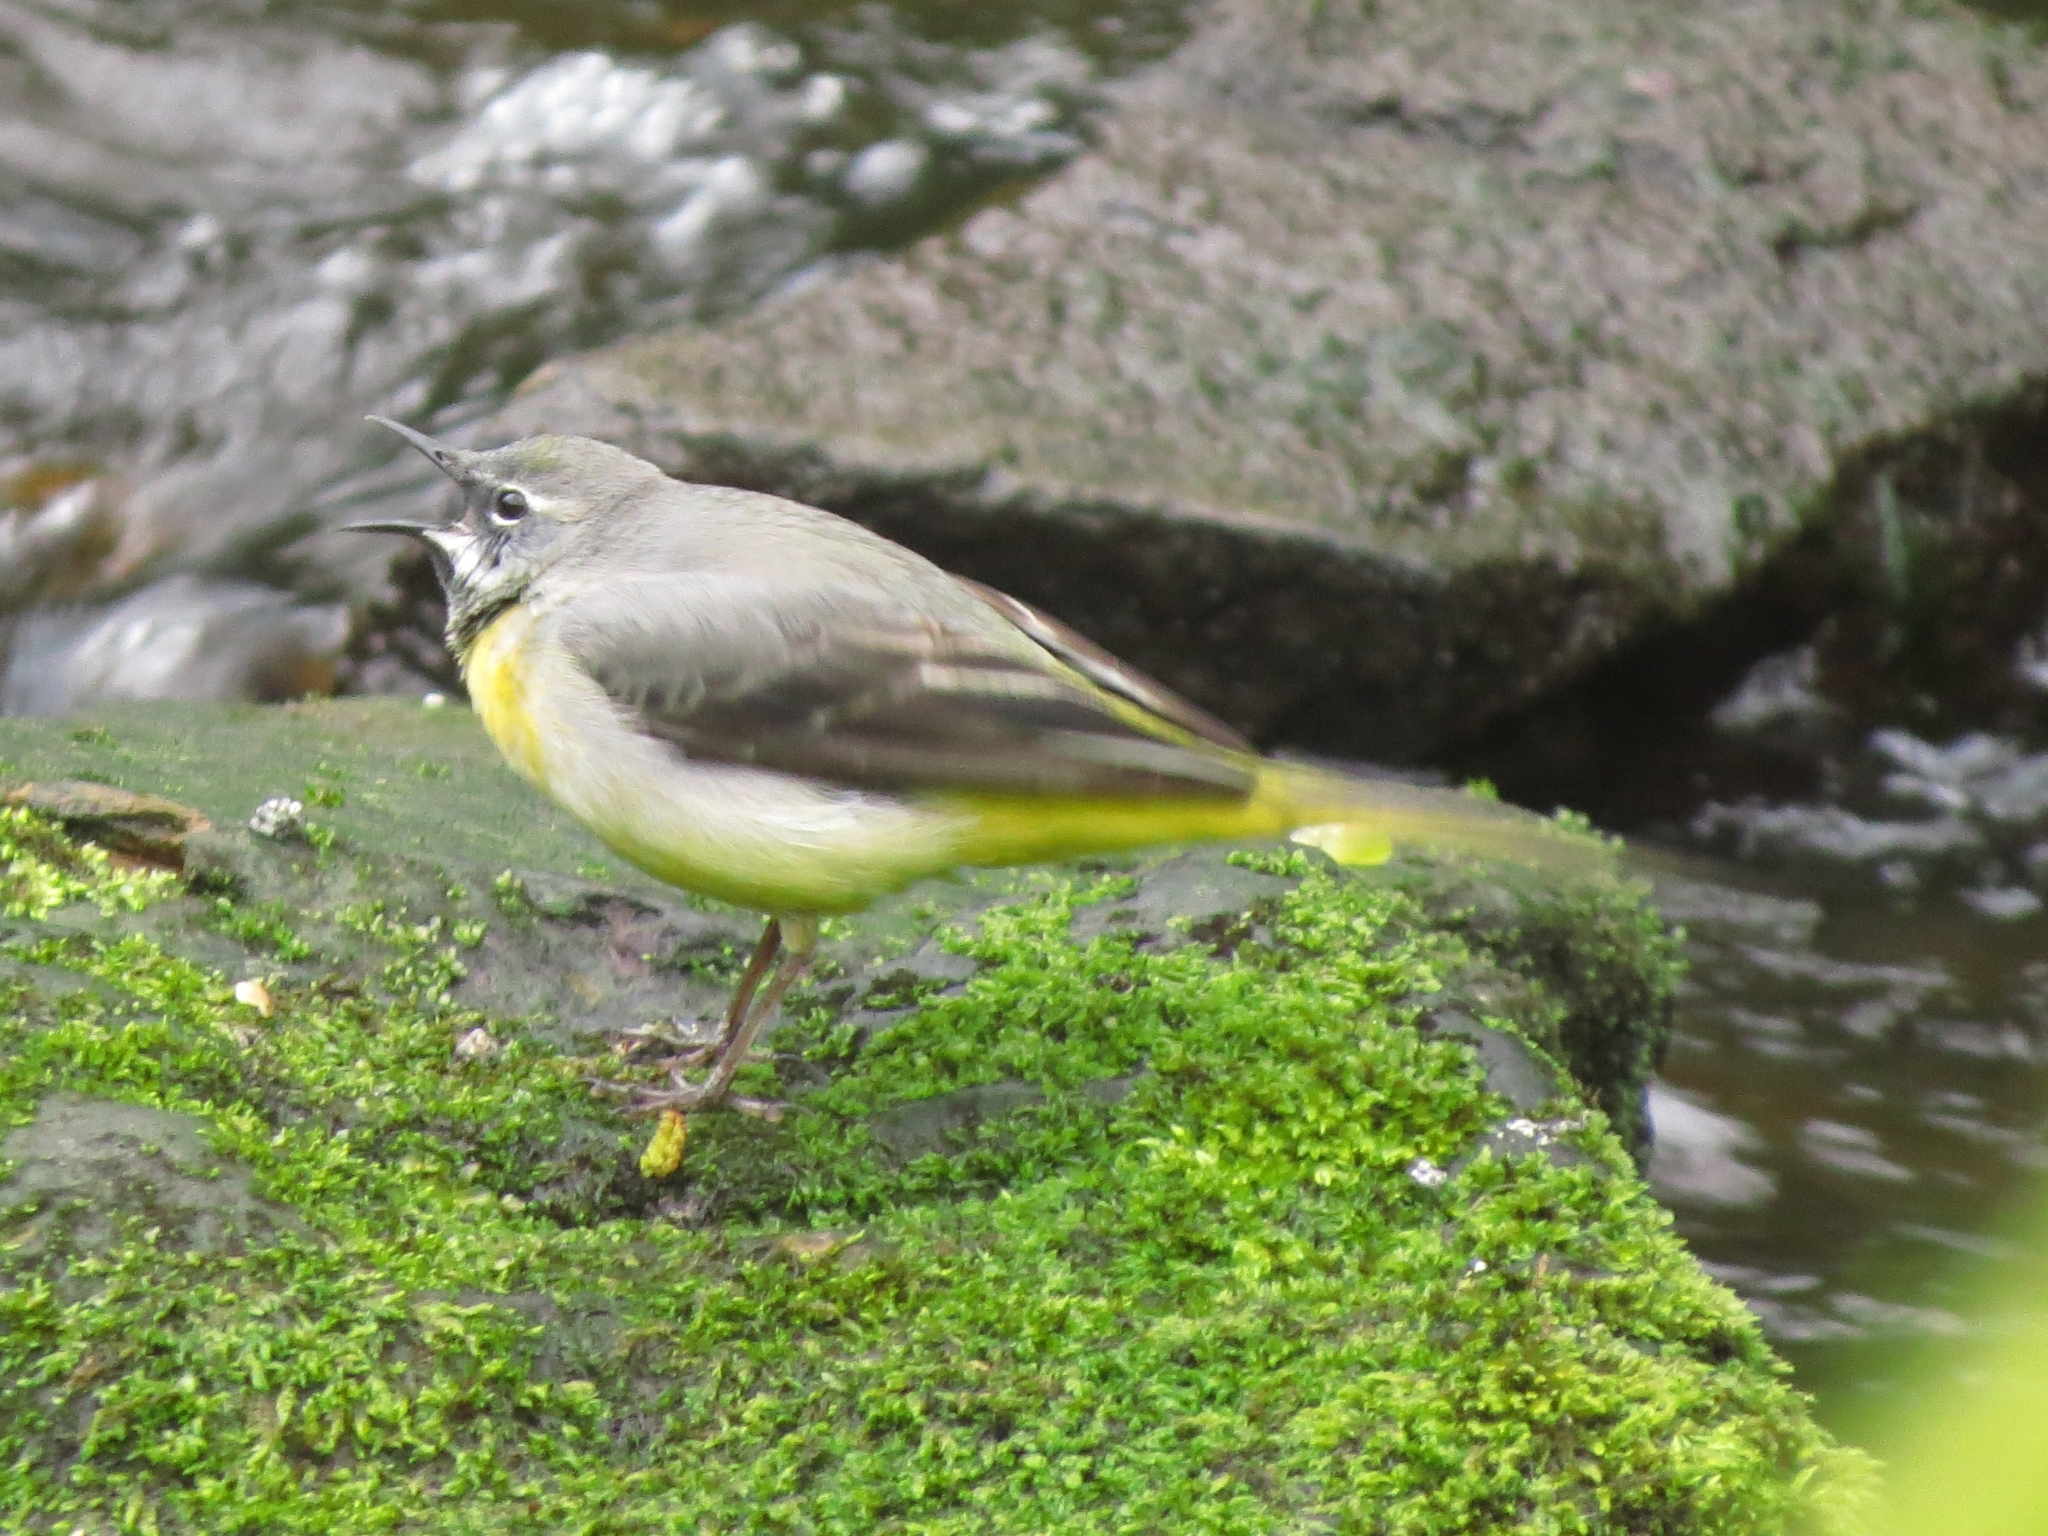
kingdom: Animalia
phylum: Chordata
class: Aves
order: Passeriformes
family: Motacillidae
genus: Motacilla
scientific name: Motacilla cinerea
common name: Grey wagtail
